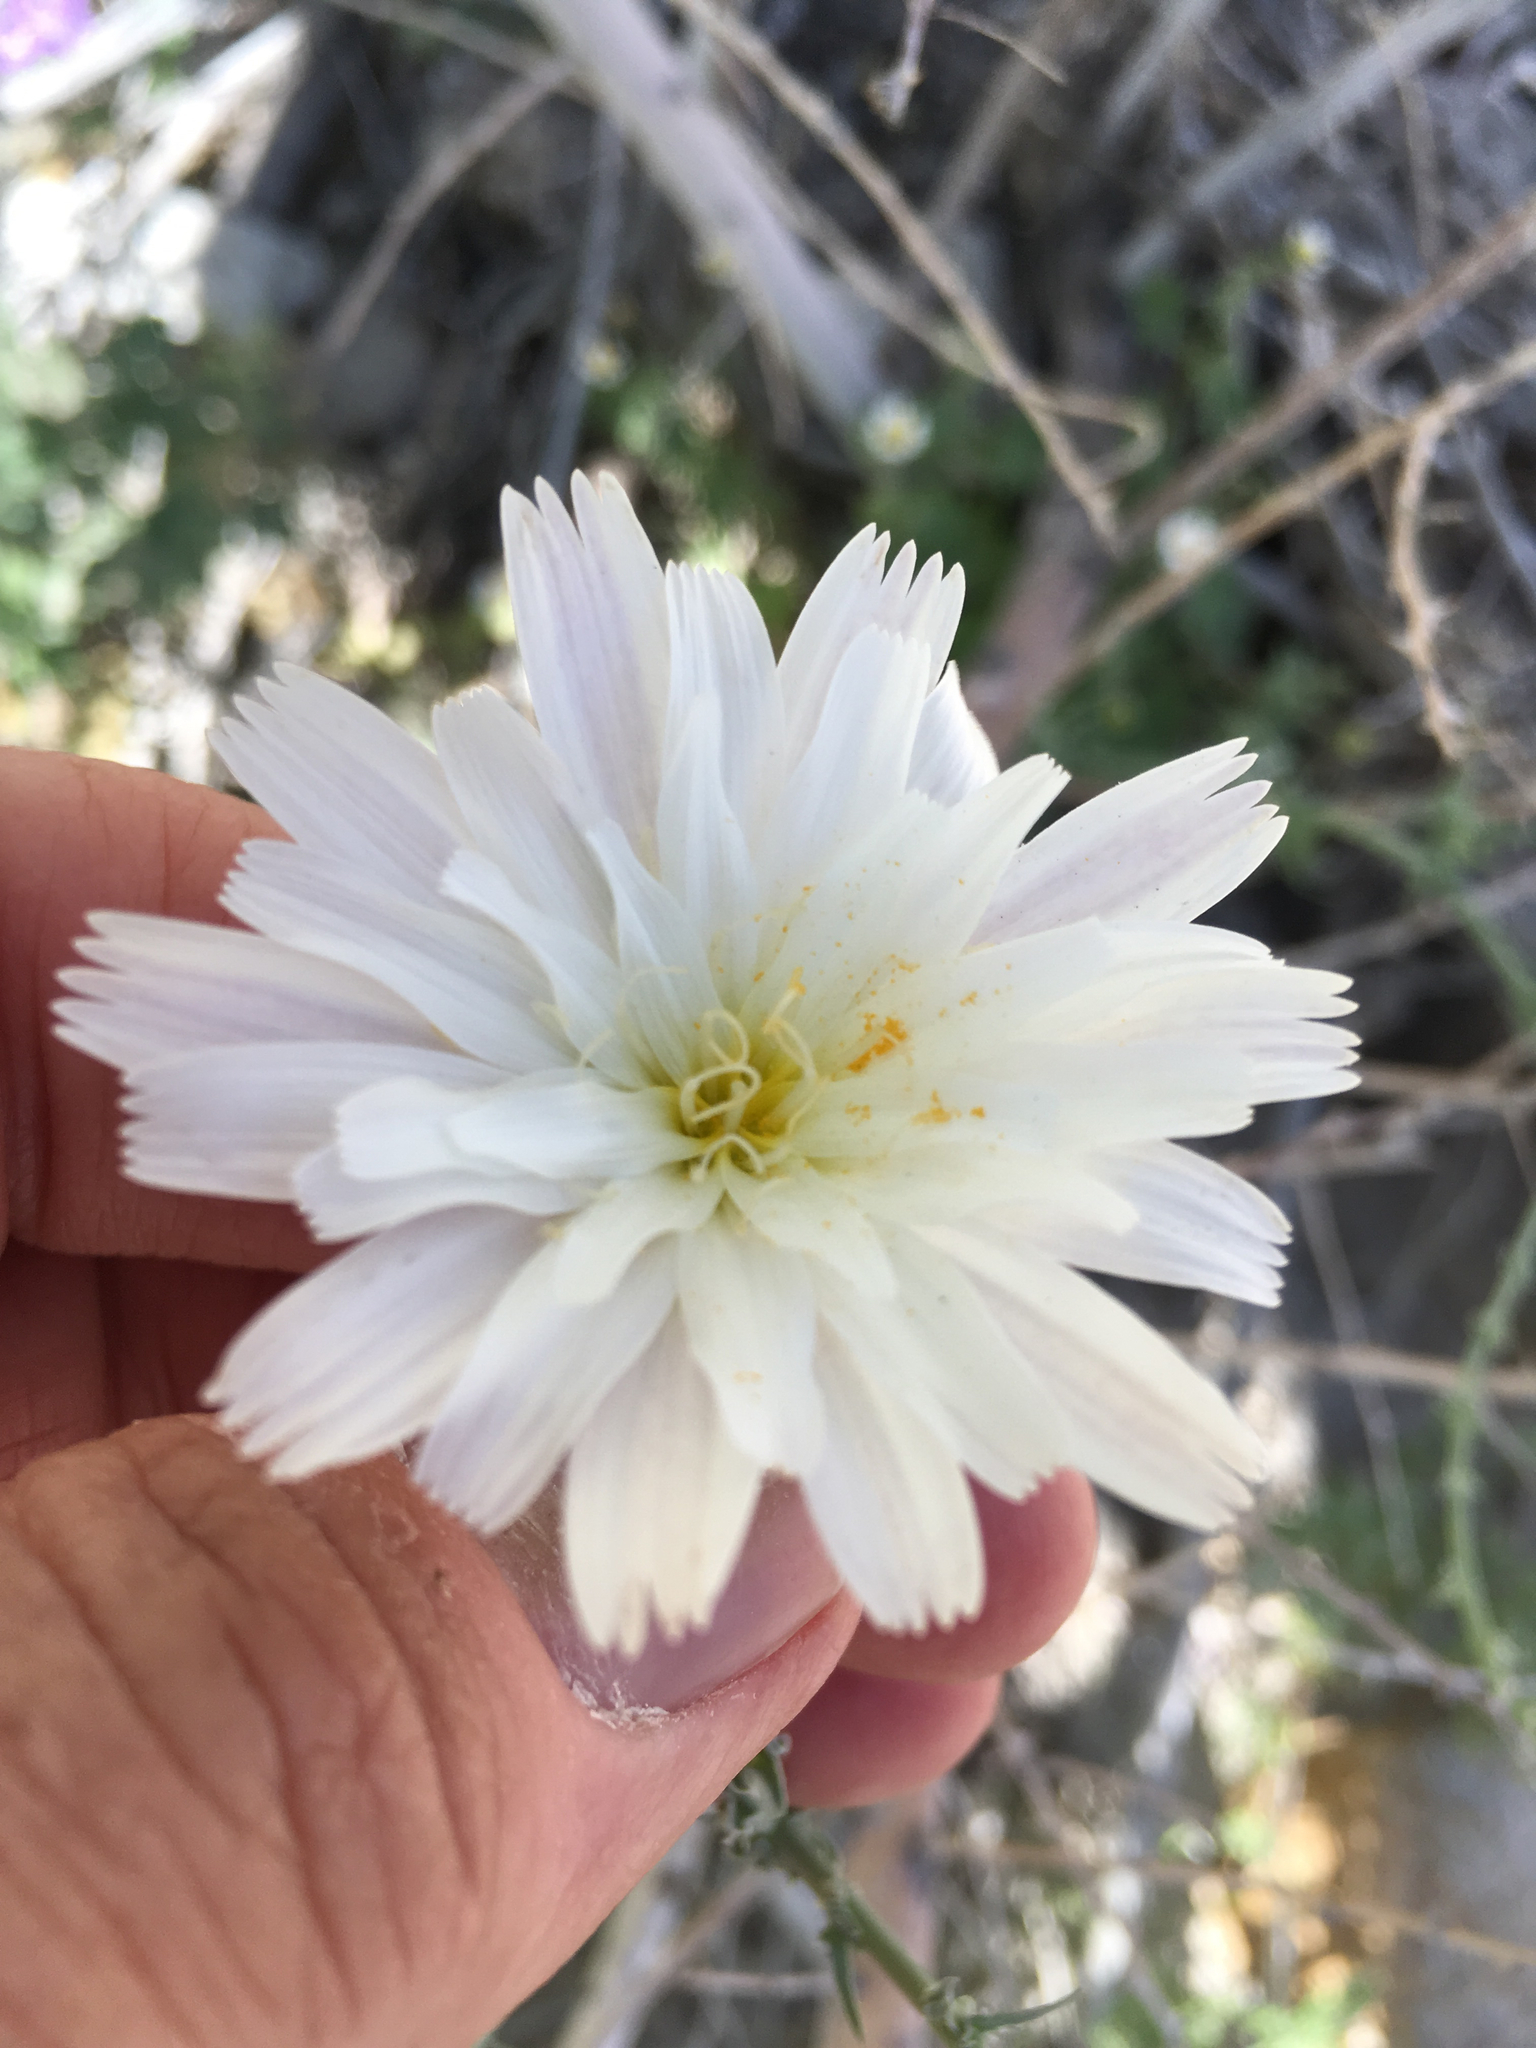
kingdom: Plantae
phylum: Tracheophyta
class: Magnoliopsida
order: Asterales
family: Asteraceae
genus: Rafinesquia
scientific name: Rafinesquia neomexicana
